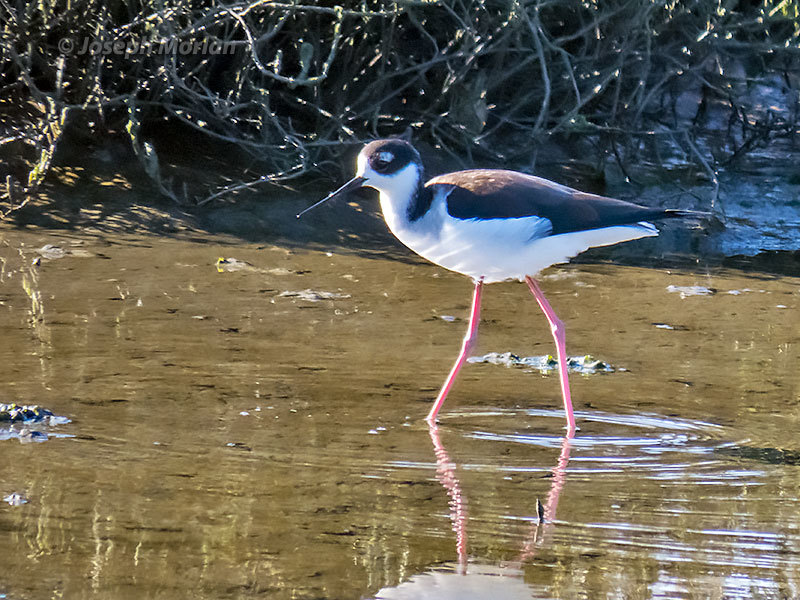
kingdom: Animalia
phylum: Chordata
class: Aves
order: Charadriiformes
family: Recurvirostridae
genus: Himantopus
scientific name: Himantopus mexicanus
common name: Black-necked stilt
